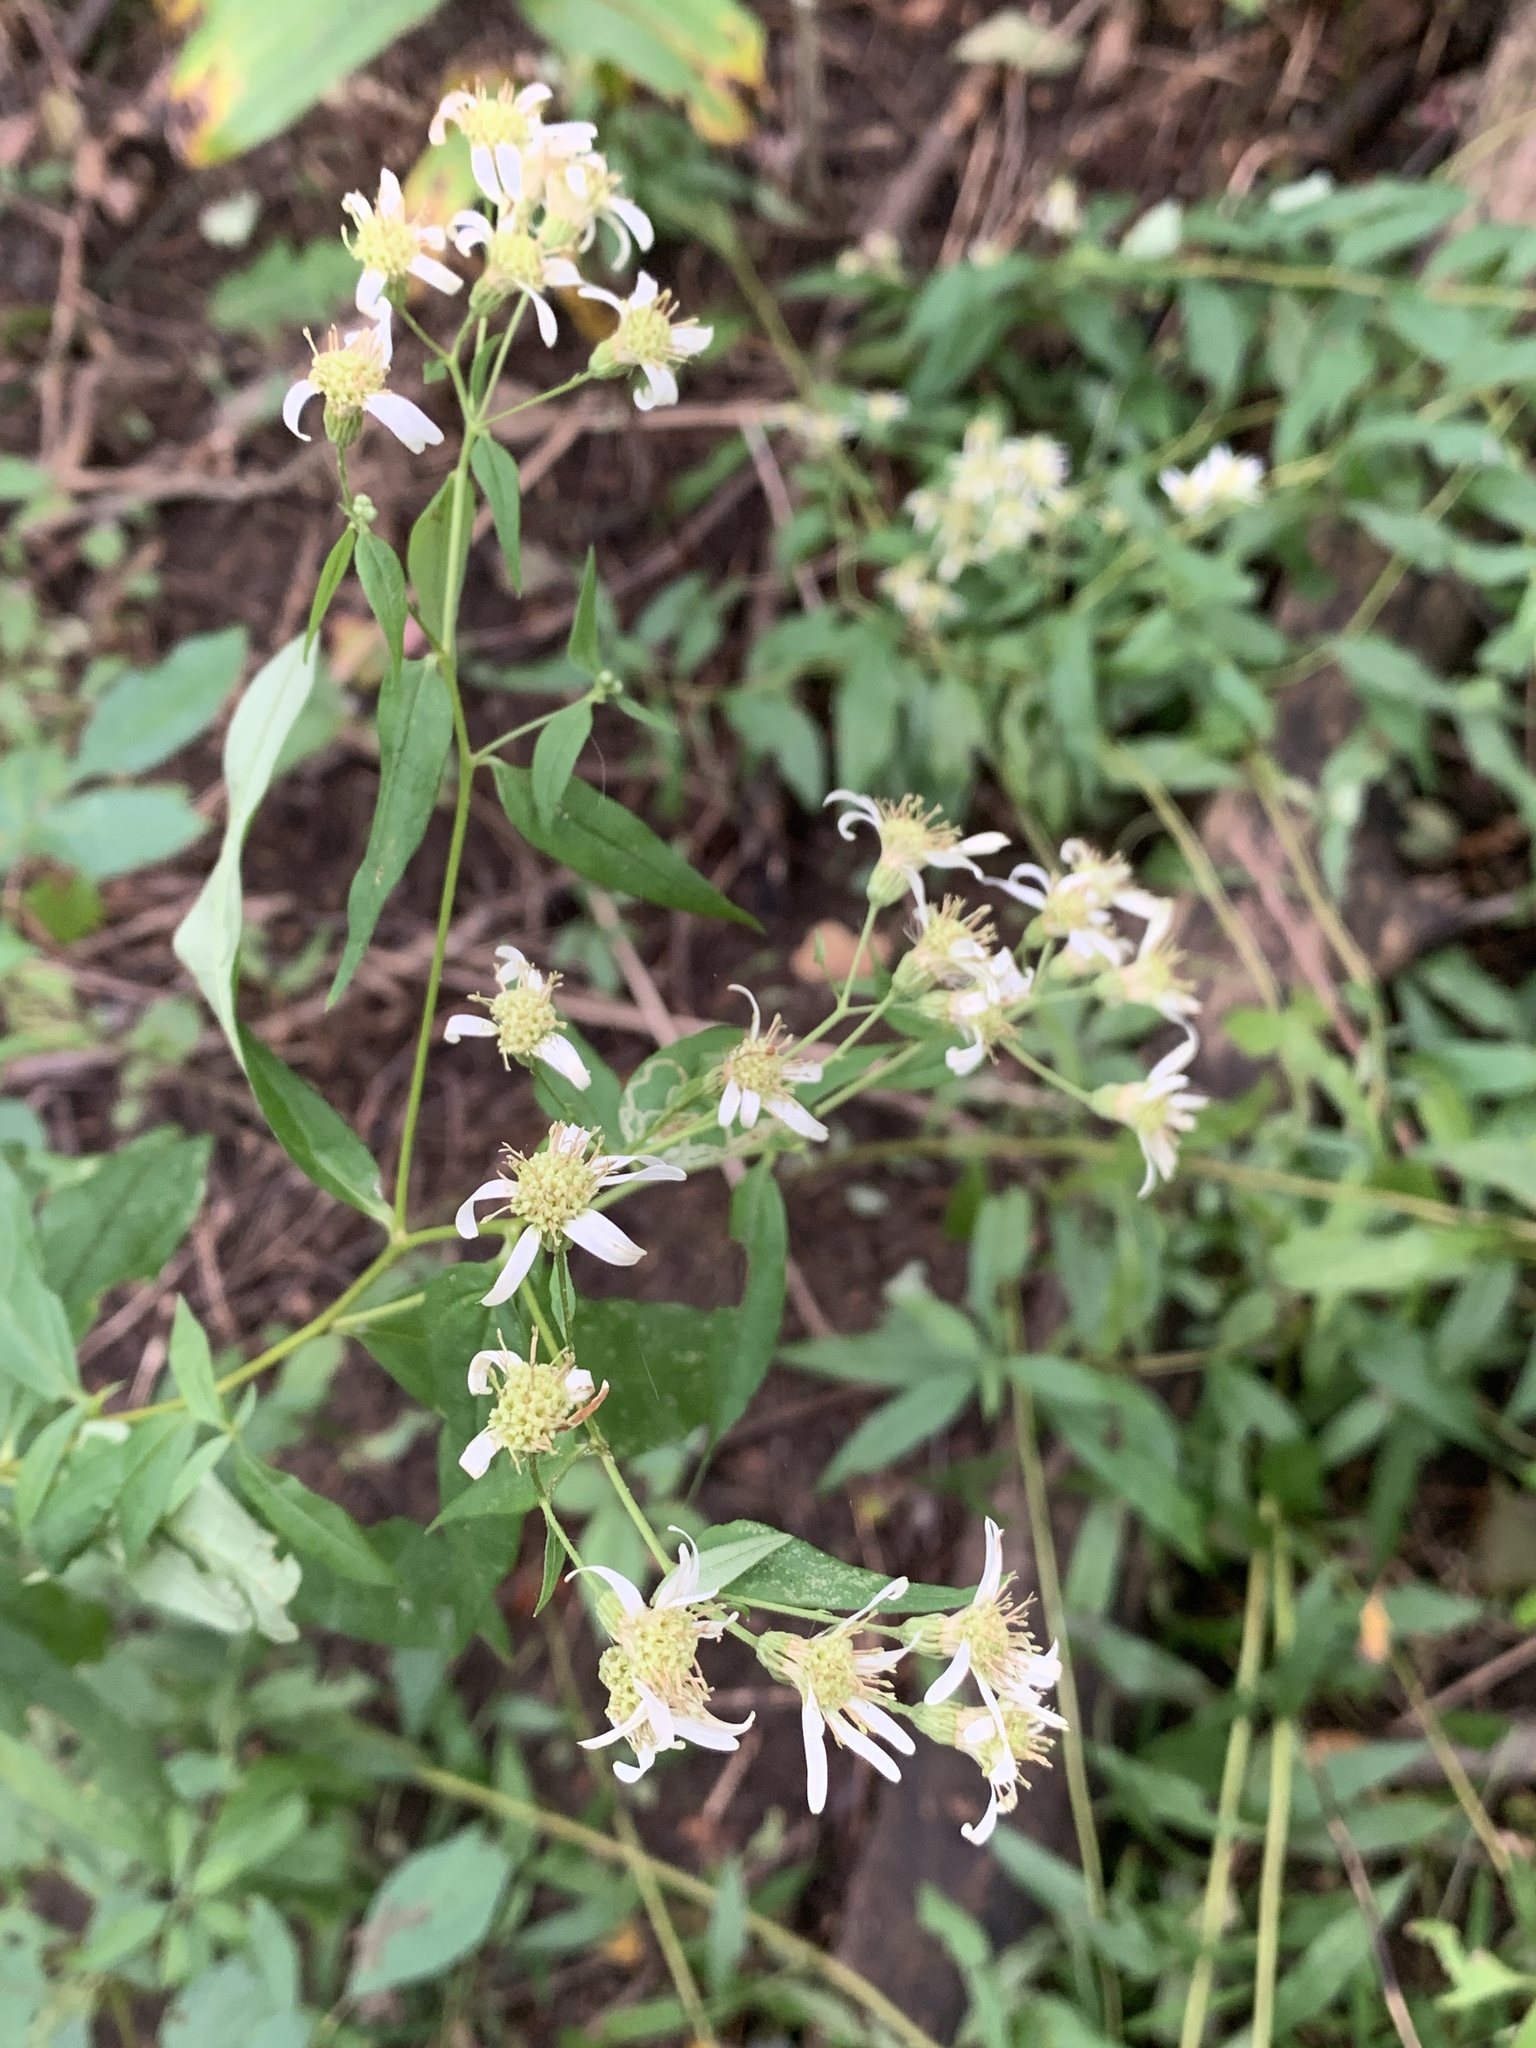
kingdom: Plantae
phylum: Tracheophyta
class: Magnoliopsida
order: Asterales
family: Asteraceae
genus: Doellingeria
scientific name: Doellingeria umbellata
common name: Flat-top white aster
